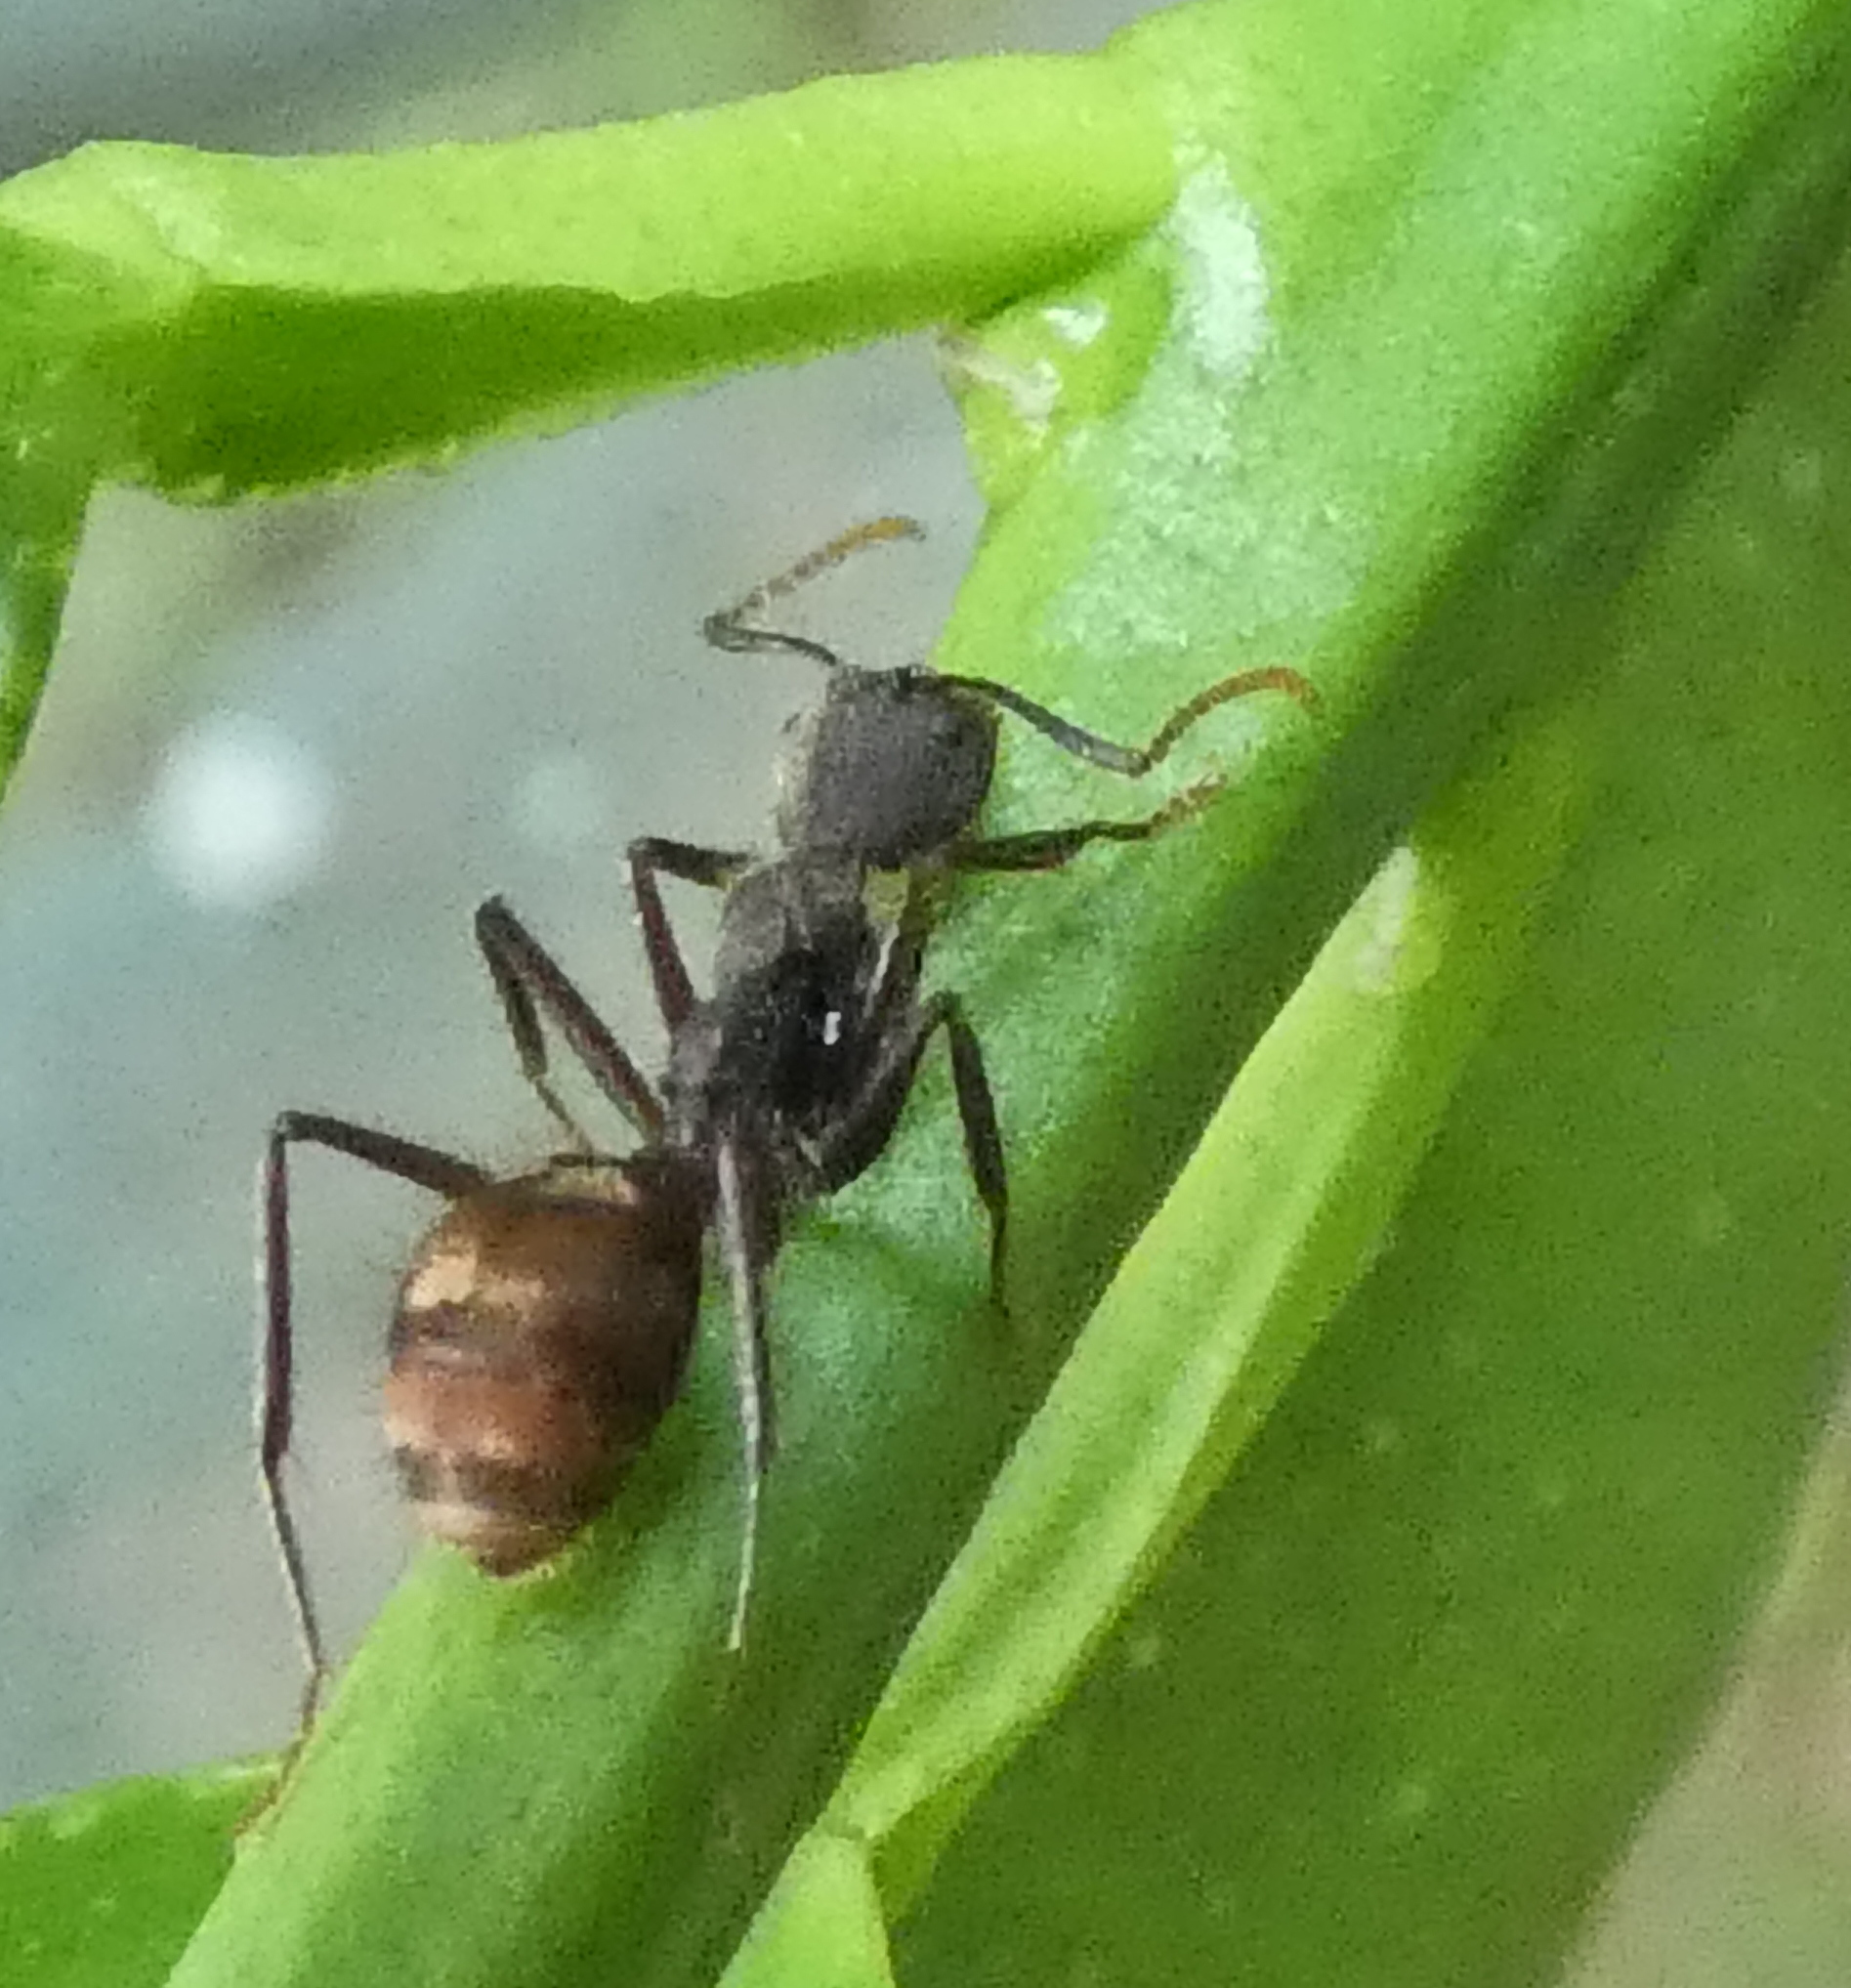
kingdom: Animalia
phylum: Arthropoda
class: Insecta
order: Hymenoptera
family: Formicidae
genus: Dolichoderus
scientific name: Dolichoderus bidens
